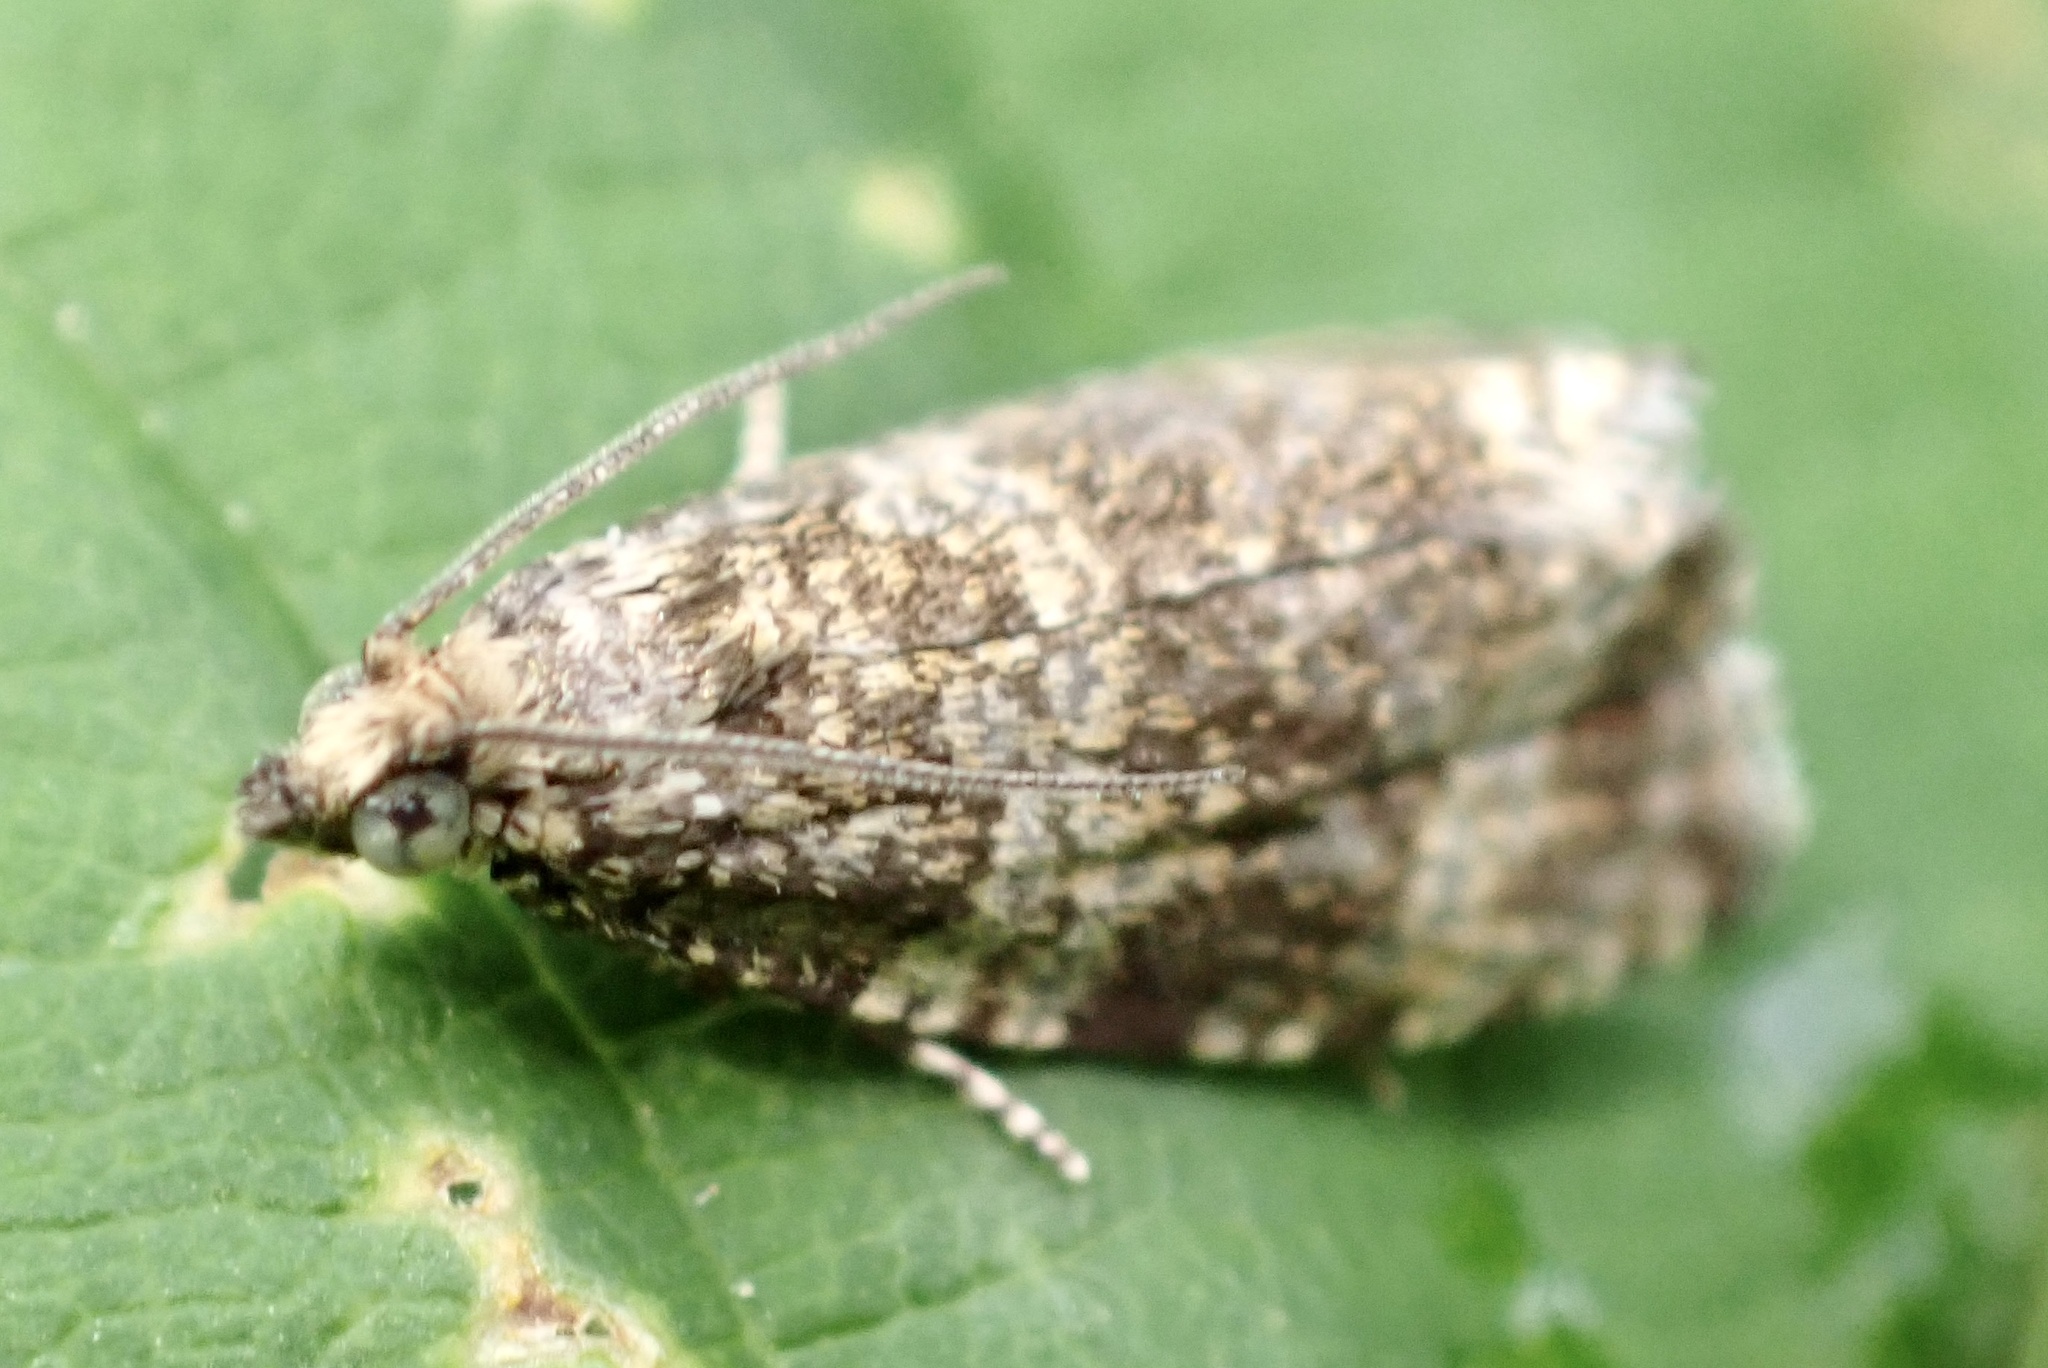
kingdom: Animalia
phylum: Arthropoda
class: Insecta
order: Lepidoptera
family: Tortricidae
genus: Syricoris
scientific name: Syricoris lacunana
